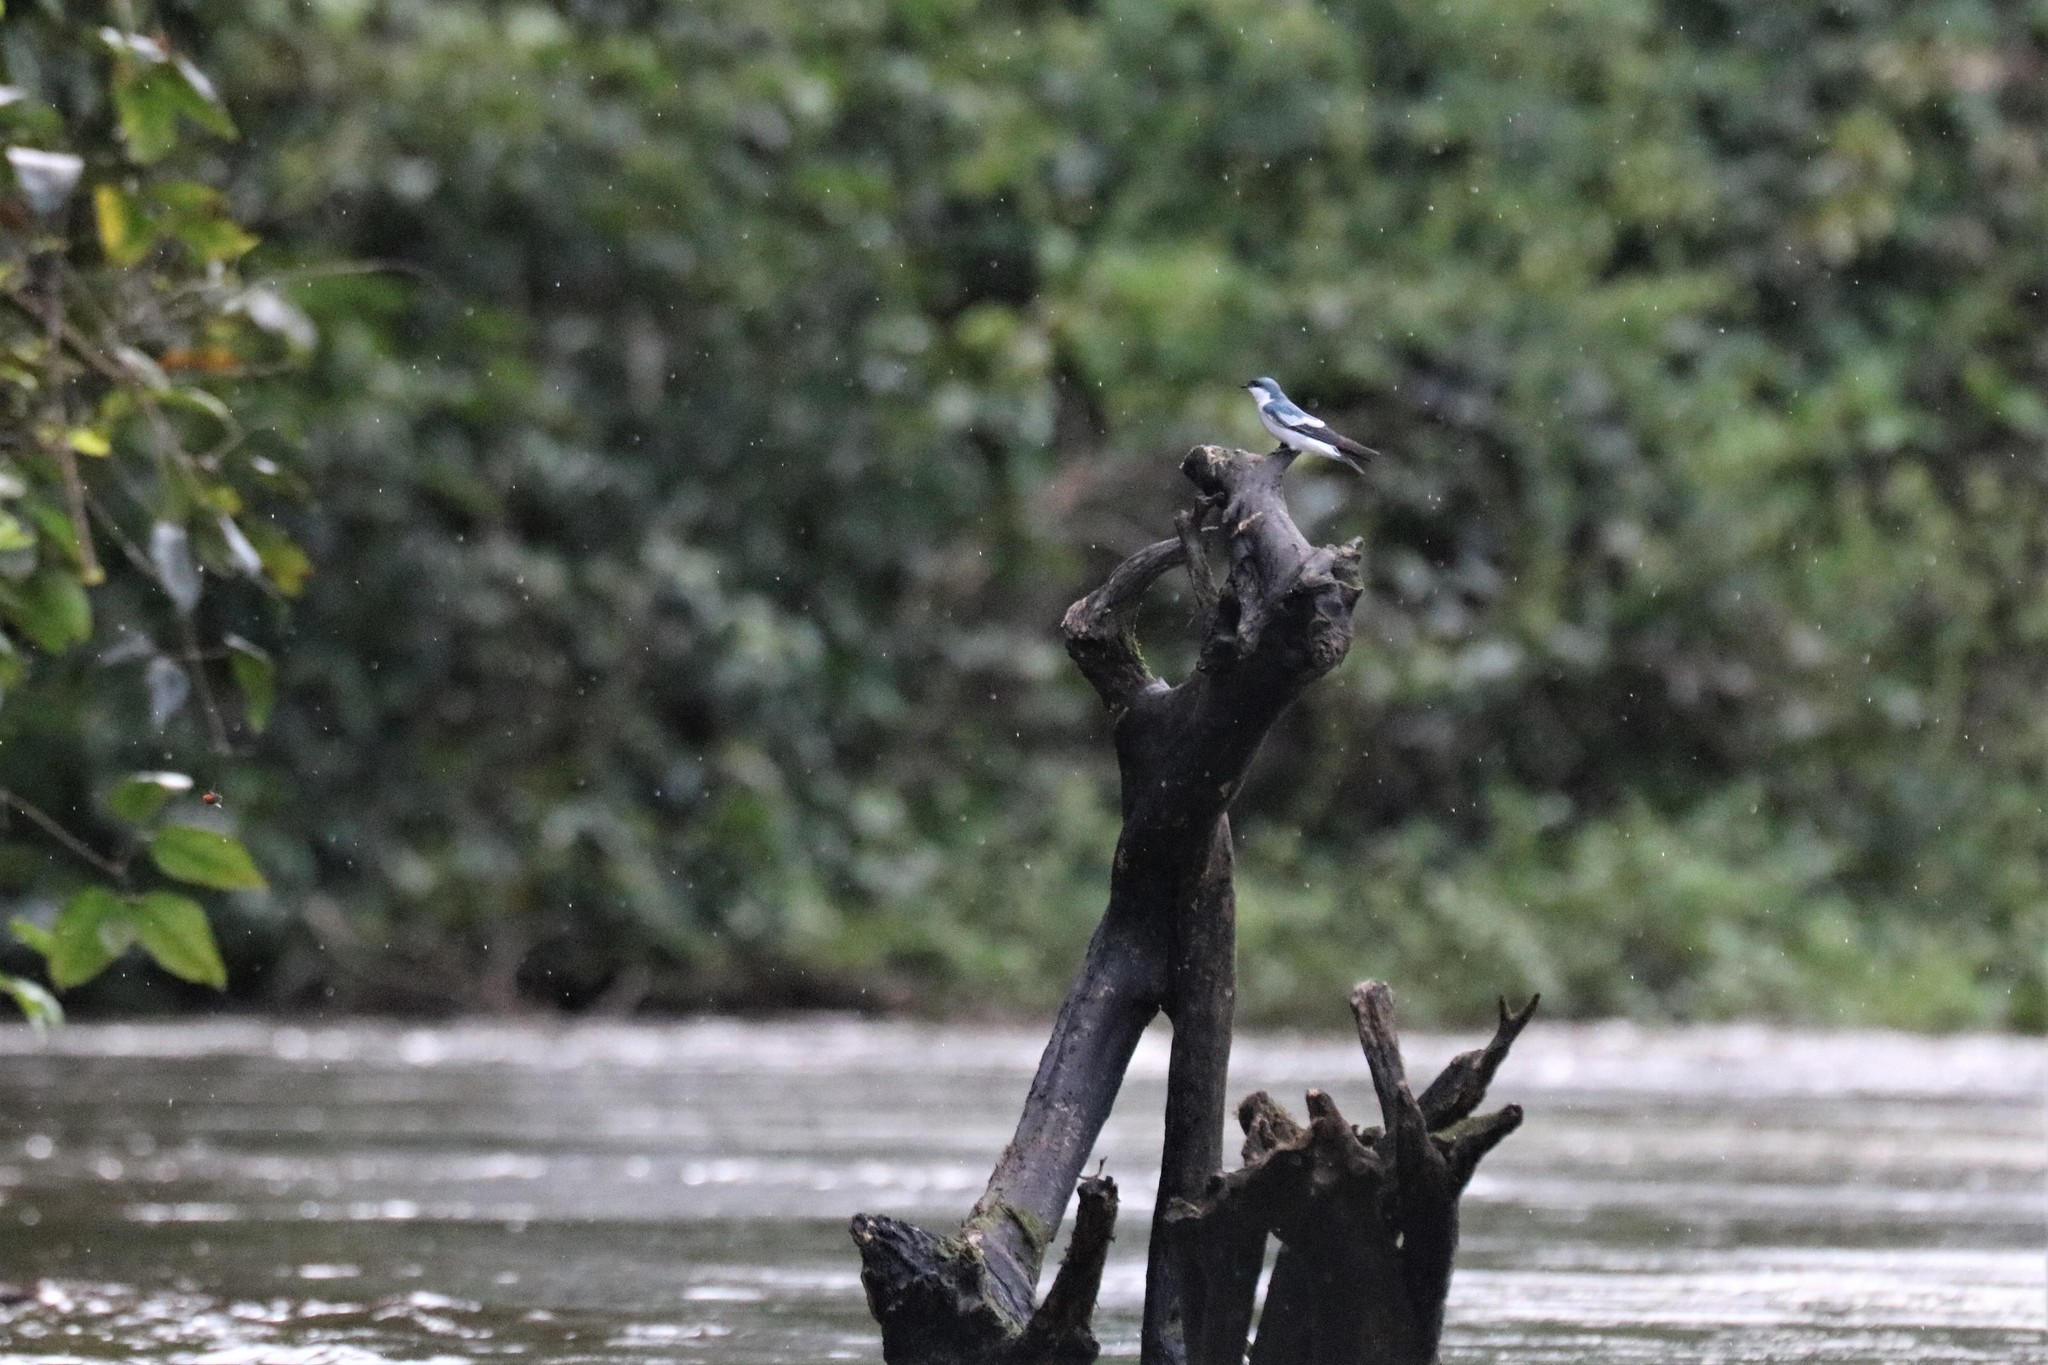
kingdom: Animalia
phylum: Chordata
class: Aves
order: Passeriformes
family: Hirundinidae
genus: Tachycineta
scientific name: Tachycineta albiventer
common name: White-winged swallow
